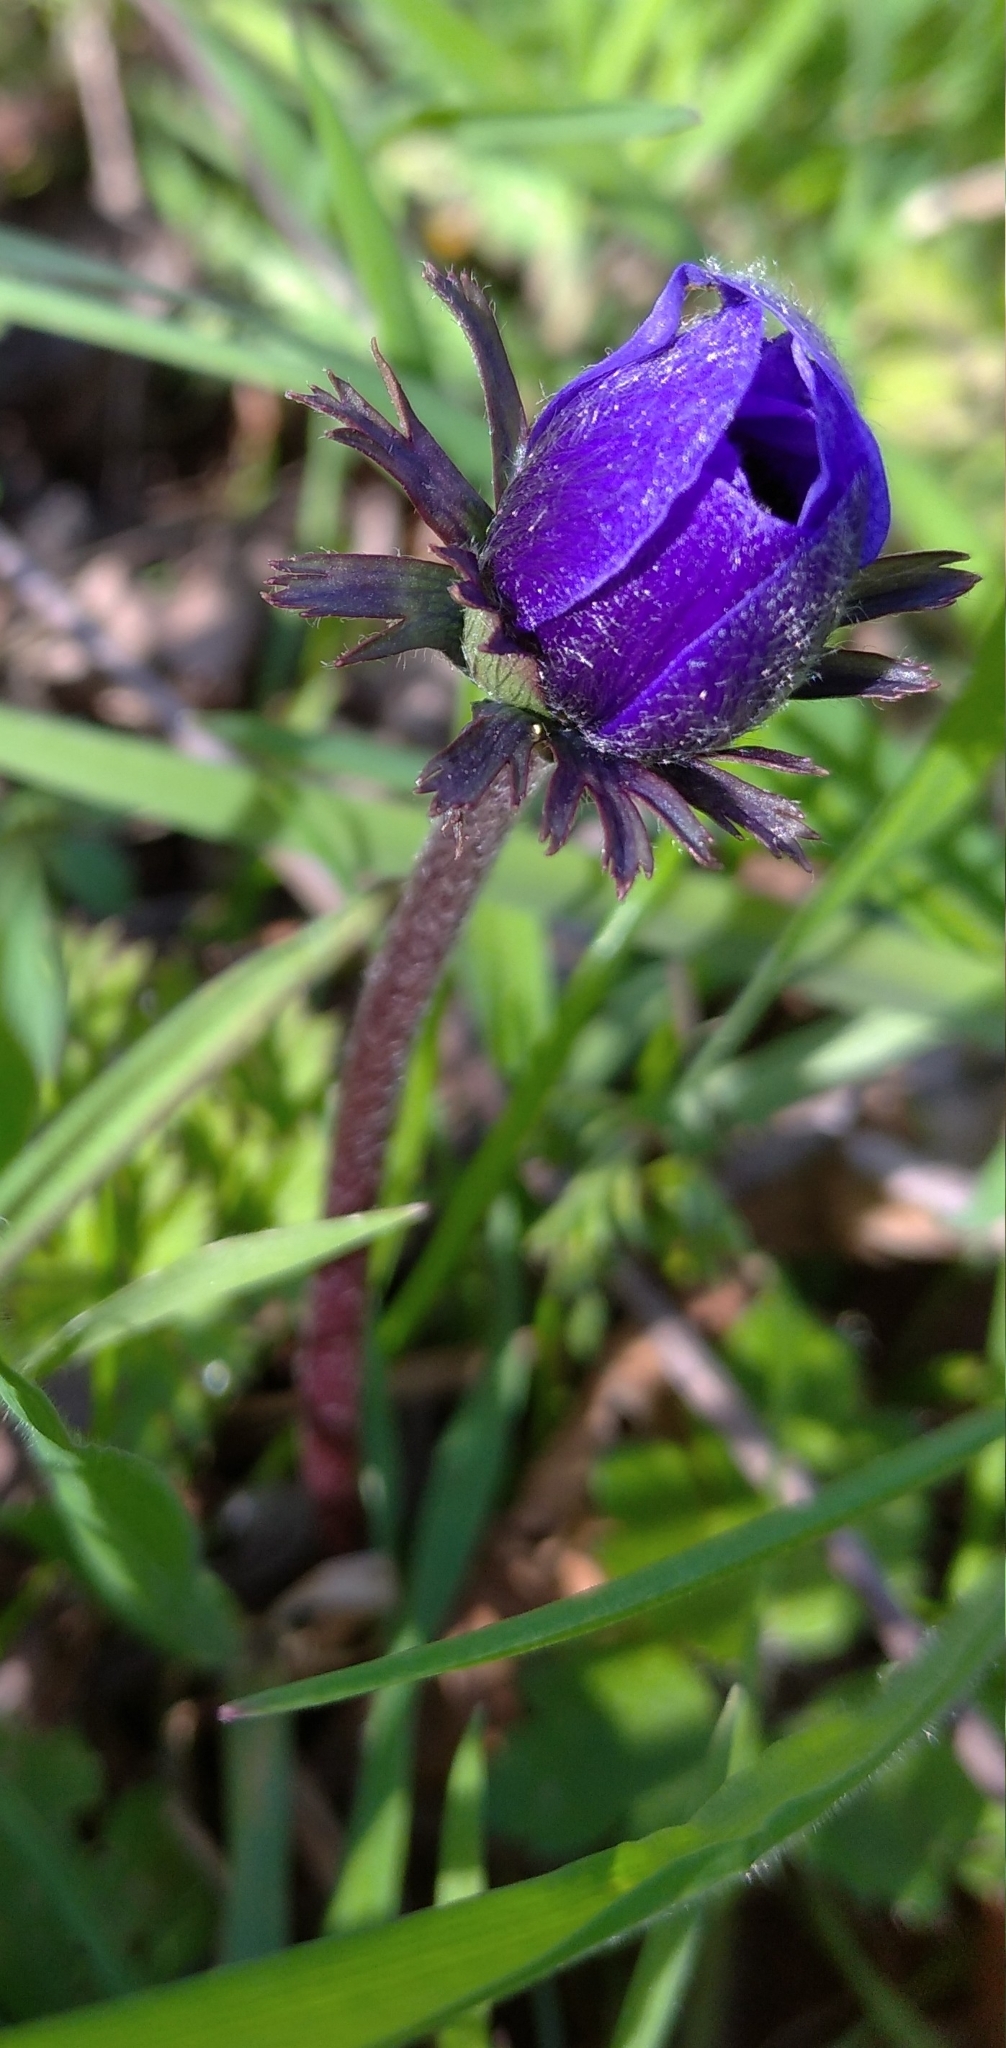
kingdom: Plantae
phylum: Tracheophyta
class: Magnoliopsida
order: Ranunculales
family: Ranunculaceae
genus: Anemone
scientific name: Anemone coronaria
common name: Poppy anemone
